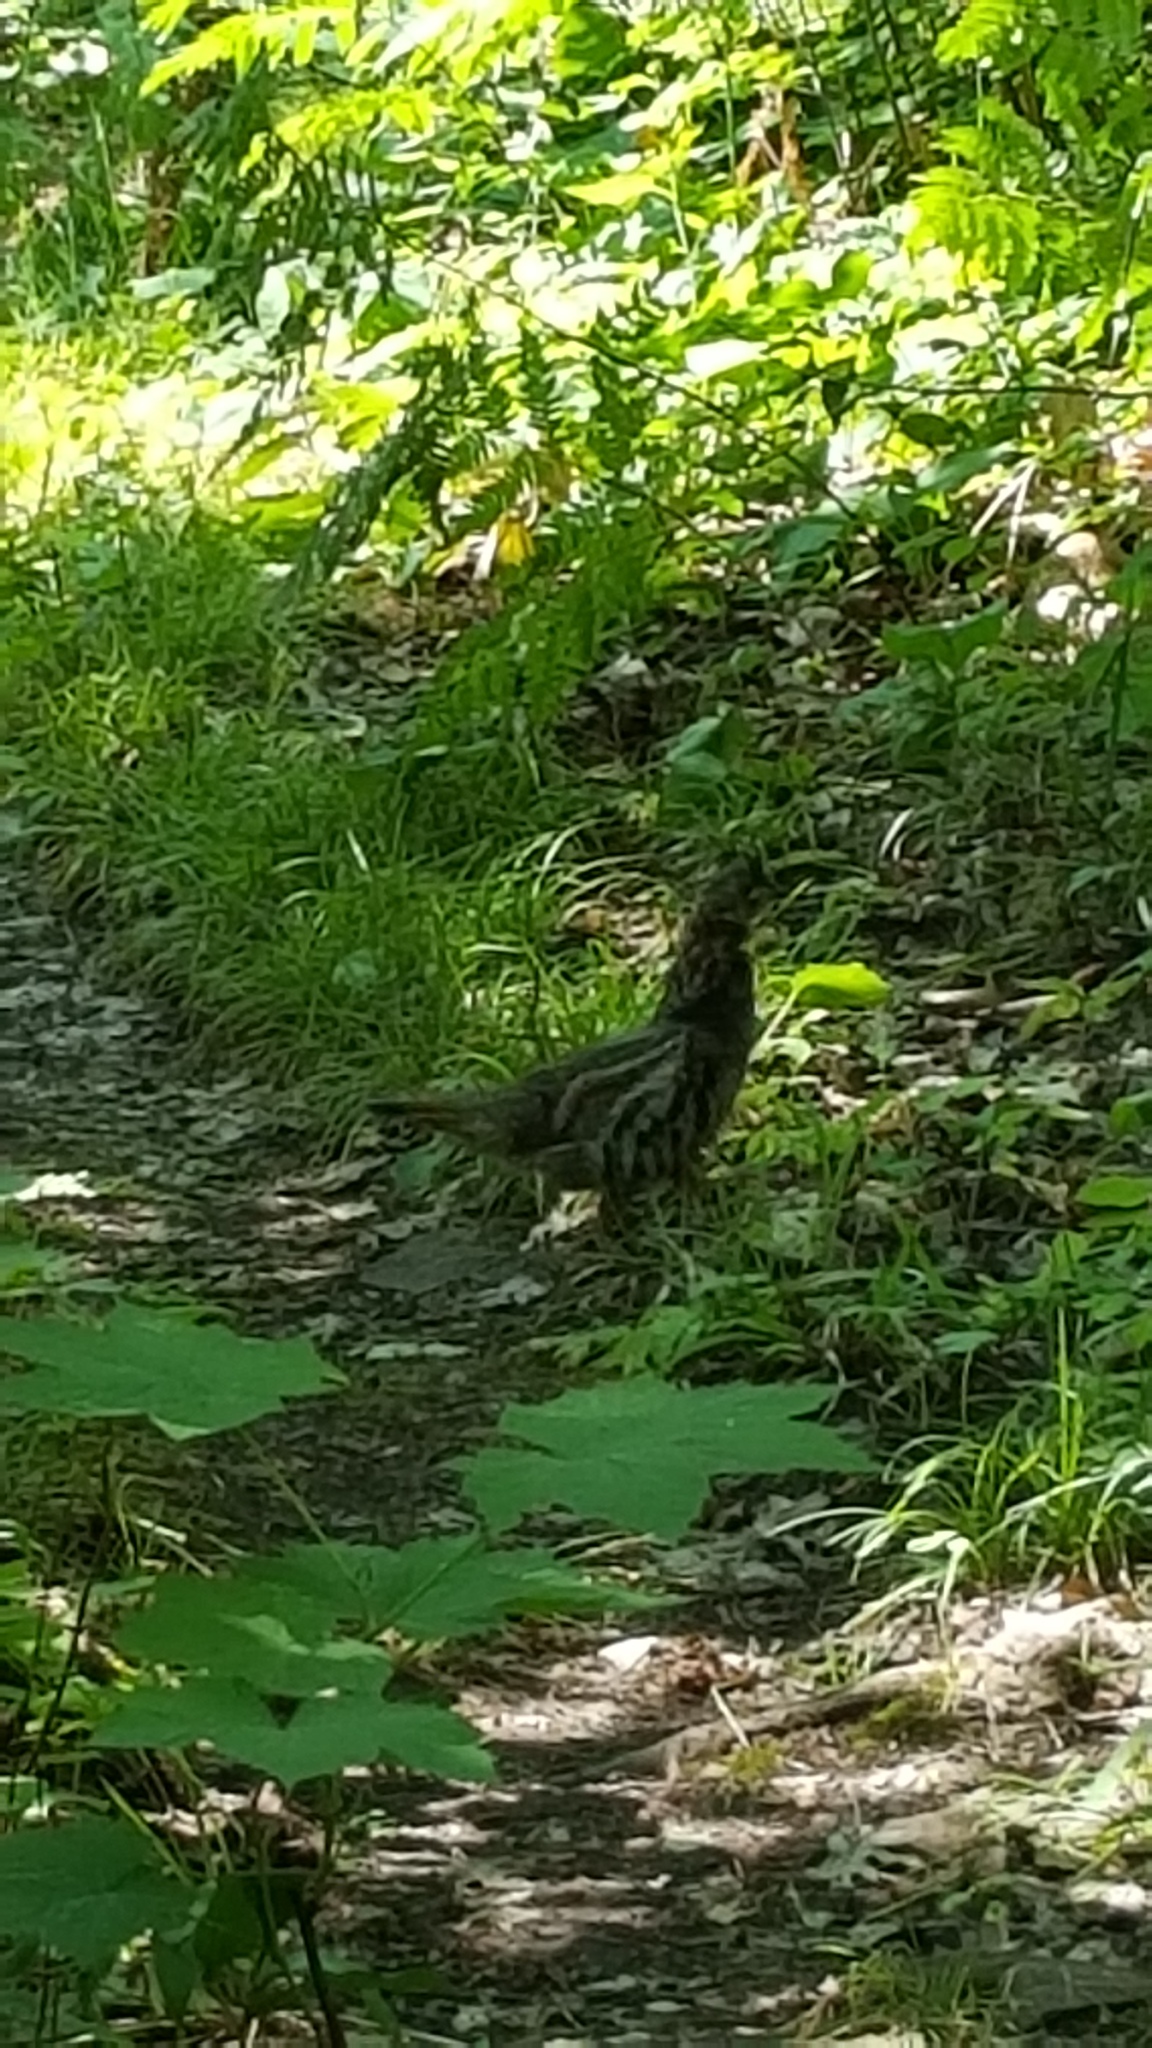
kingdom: Animalia
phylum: Chordata
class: Aves
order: Galliformes
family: Phasianidae
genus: Bonasa
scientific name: Bonasa umbellus
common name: Ruffed grouse
